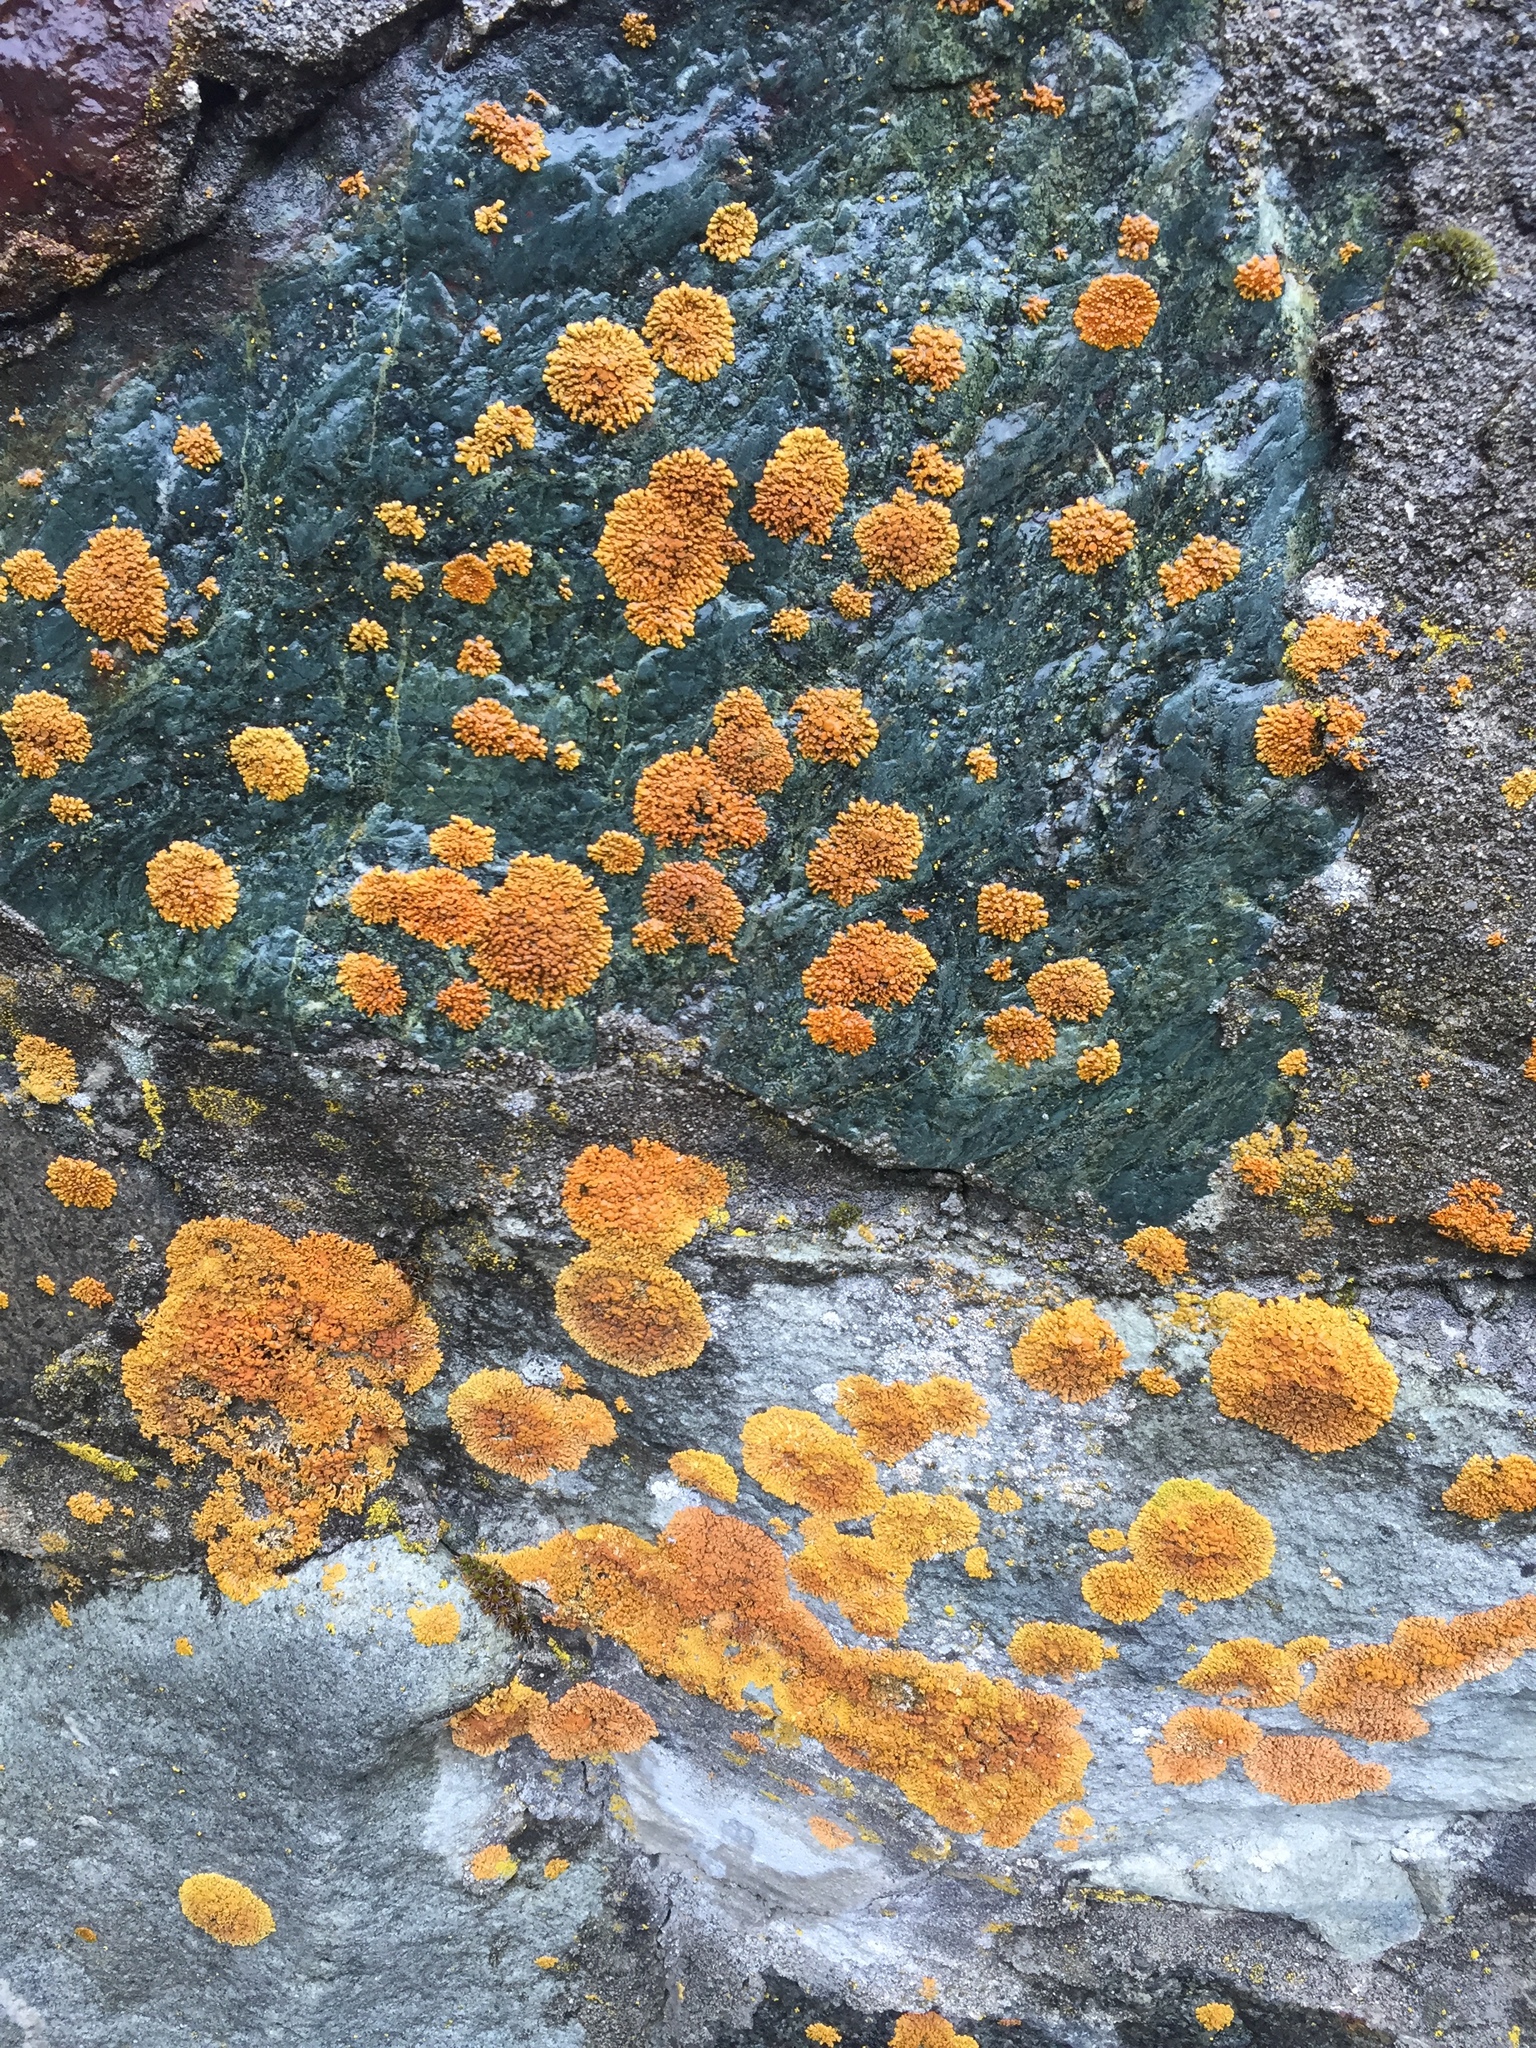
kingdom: Fungi
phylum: Ascomycota
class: Lecanoromycetes
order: Teloschistales
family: Teloschistaceae
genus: Xanthoria
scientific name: Xanthoria elegans
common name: Elegant sunburst lichen
